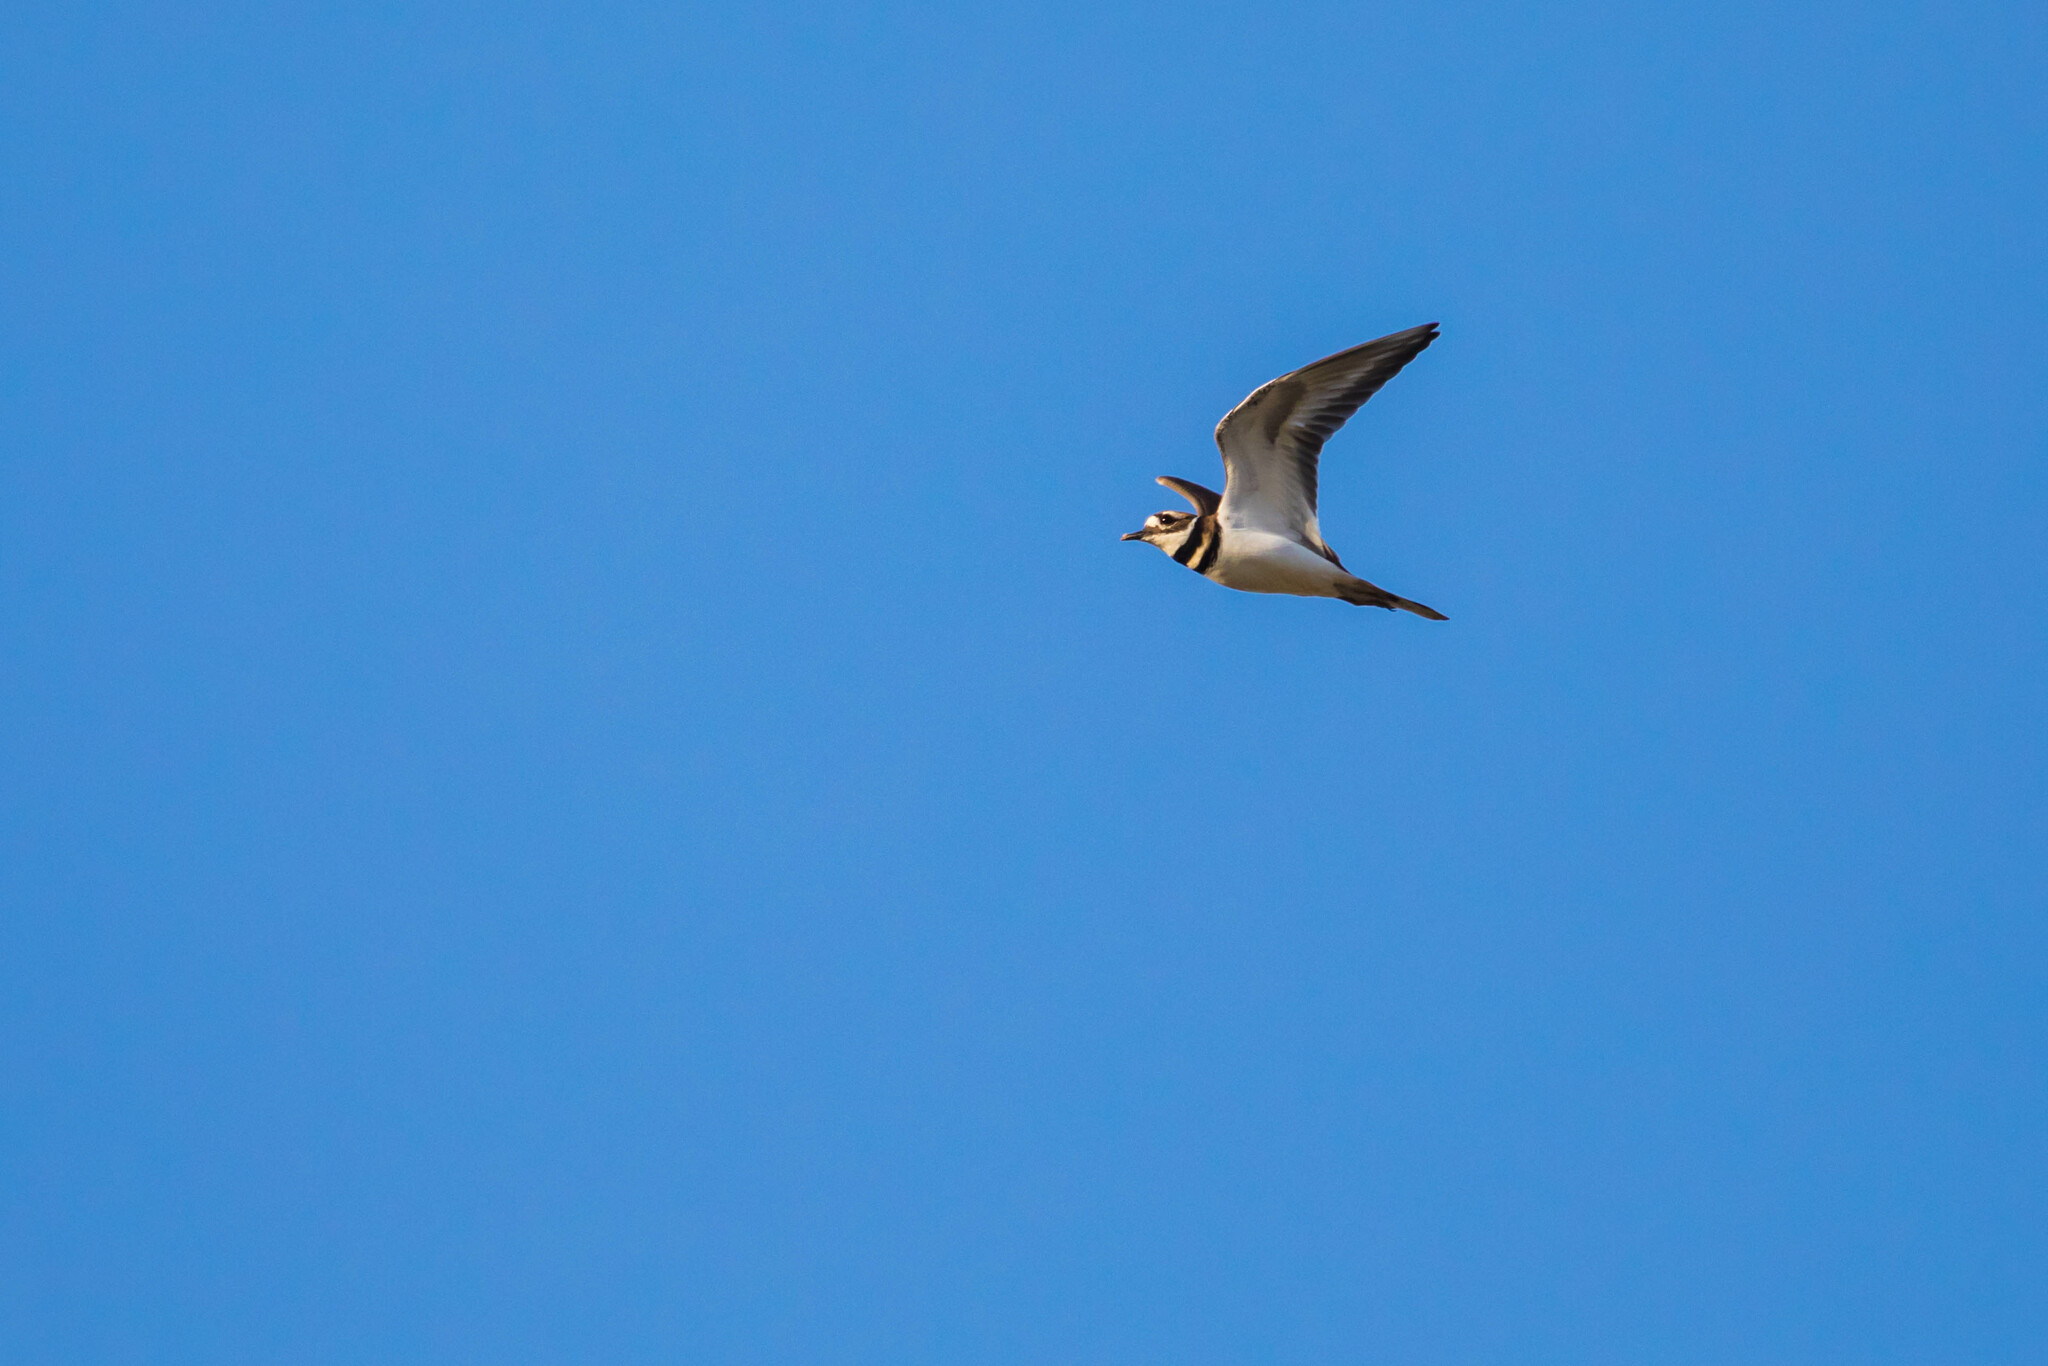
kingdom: Animalia
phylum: Chordata
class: Aves
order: Charadriiformes
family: Charadriidae
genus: Charadrius
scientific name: Charadrius vociferus
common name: Killdeer
